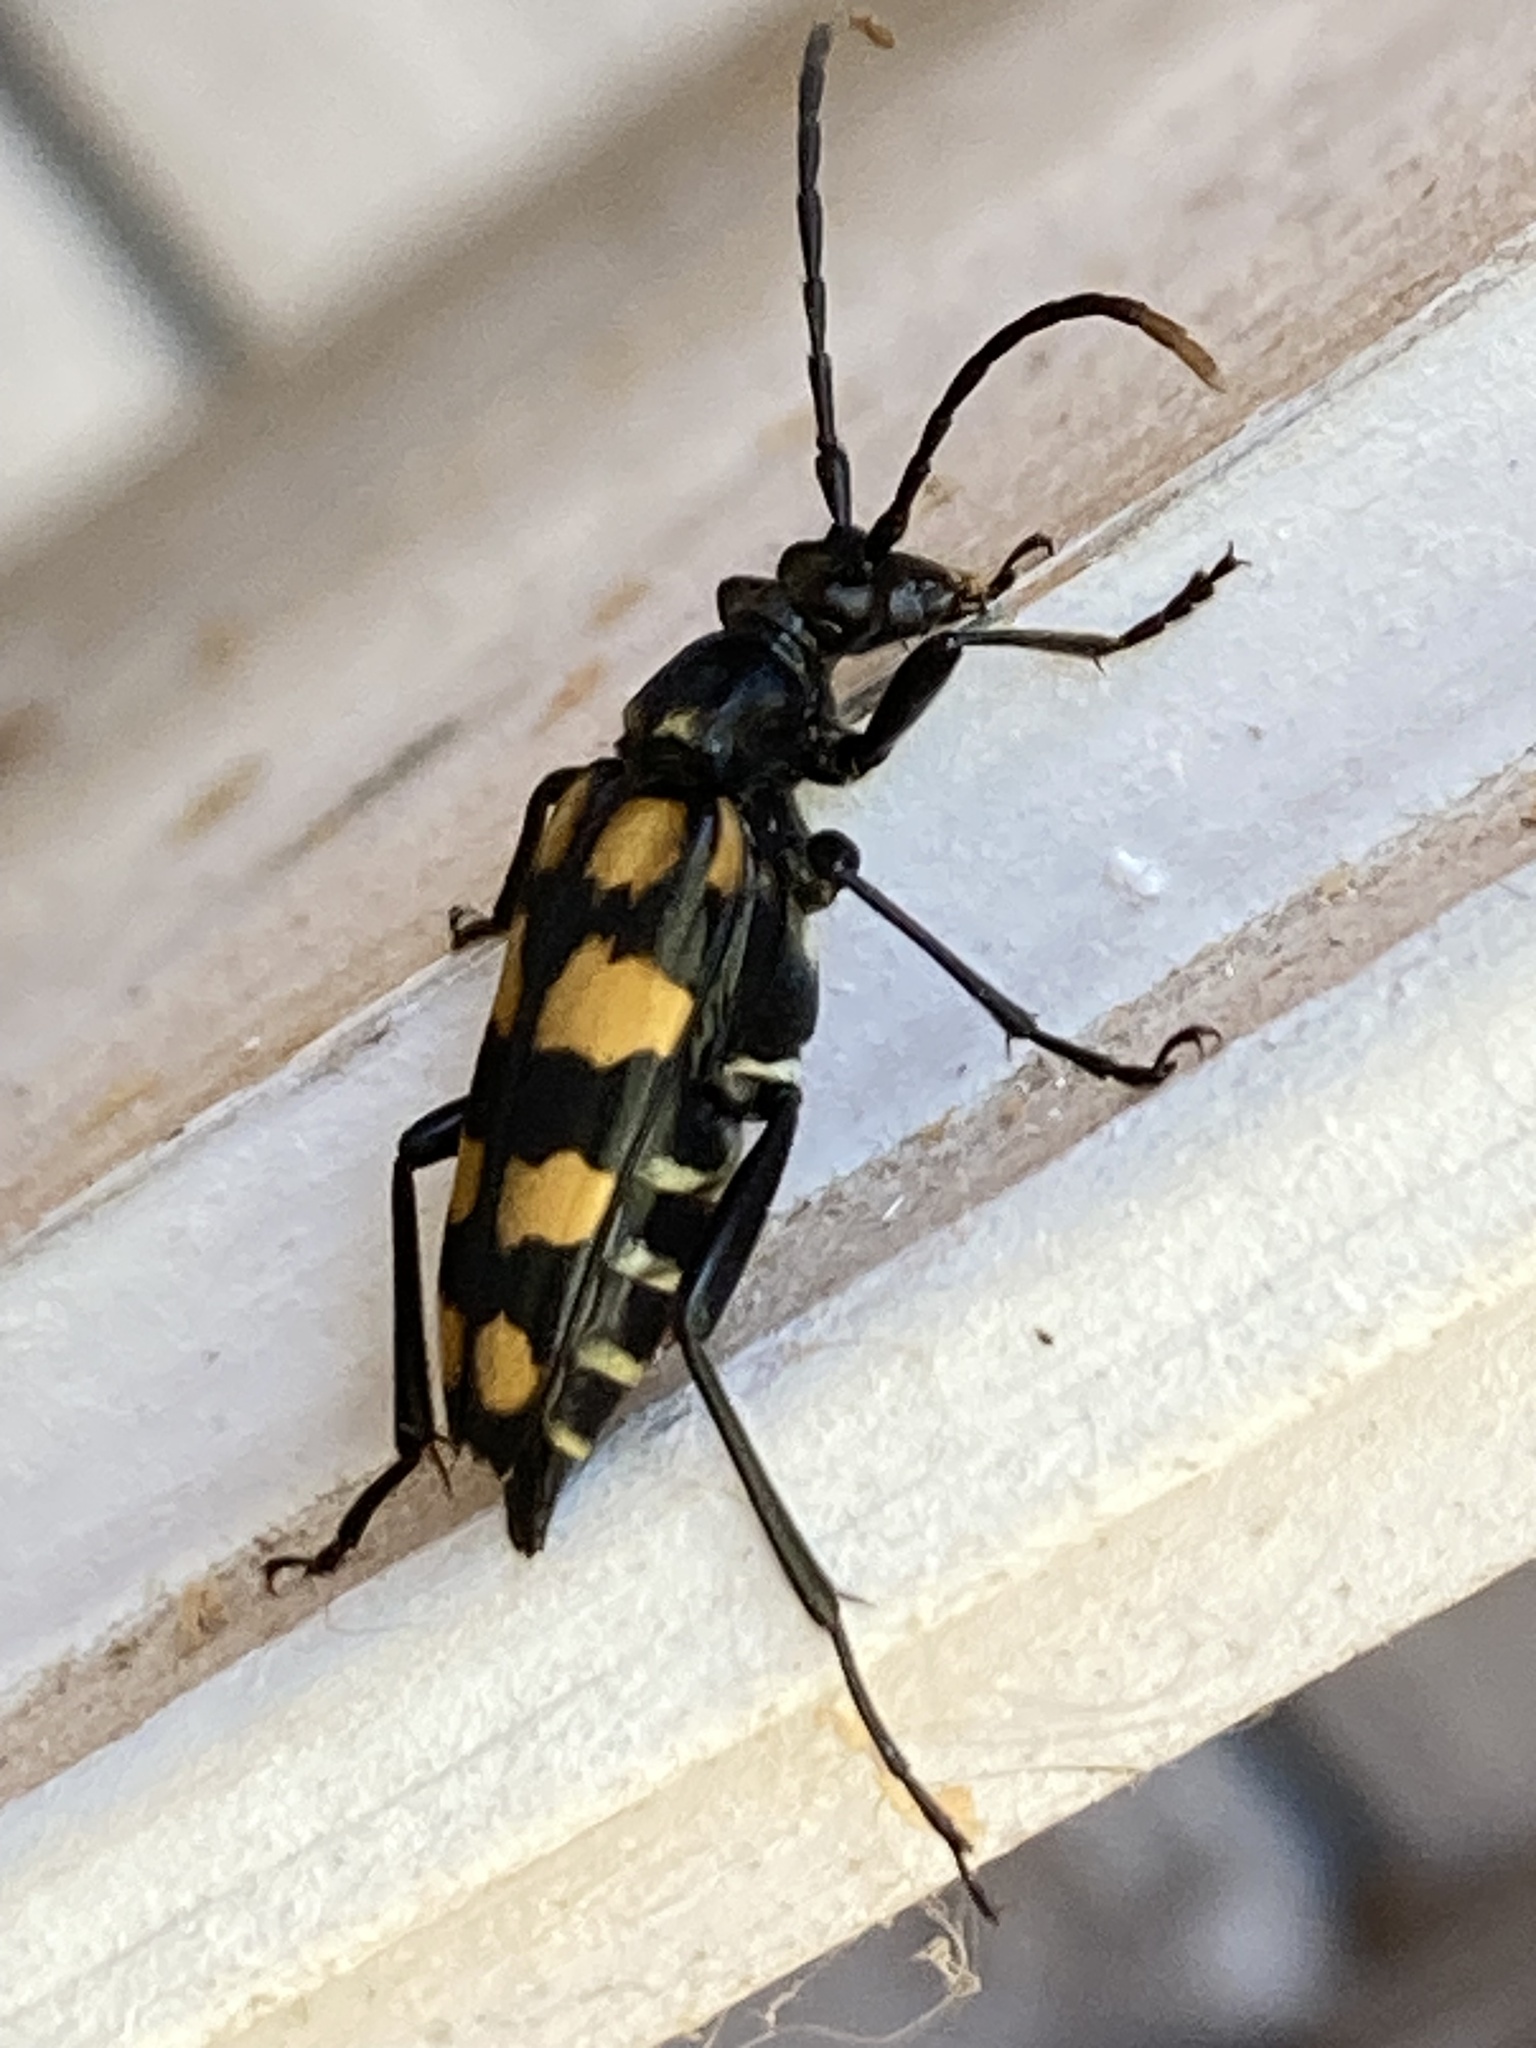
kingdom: Animalia
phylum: Arthropoda
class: Insecta
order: Coleoptera
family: Cerambycidae
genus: Leptura
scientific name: Leptura quadrifasciata
